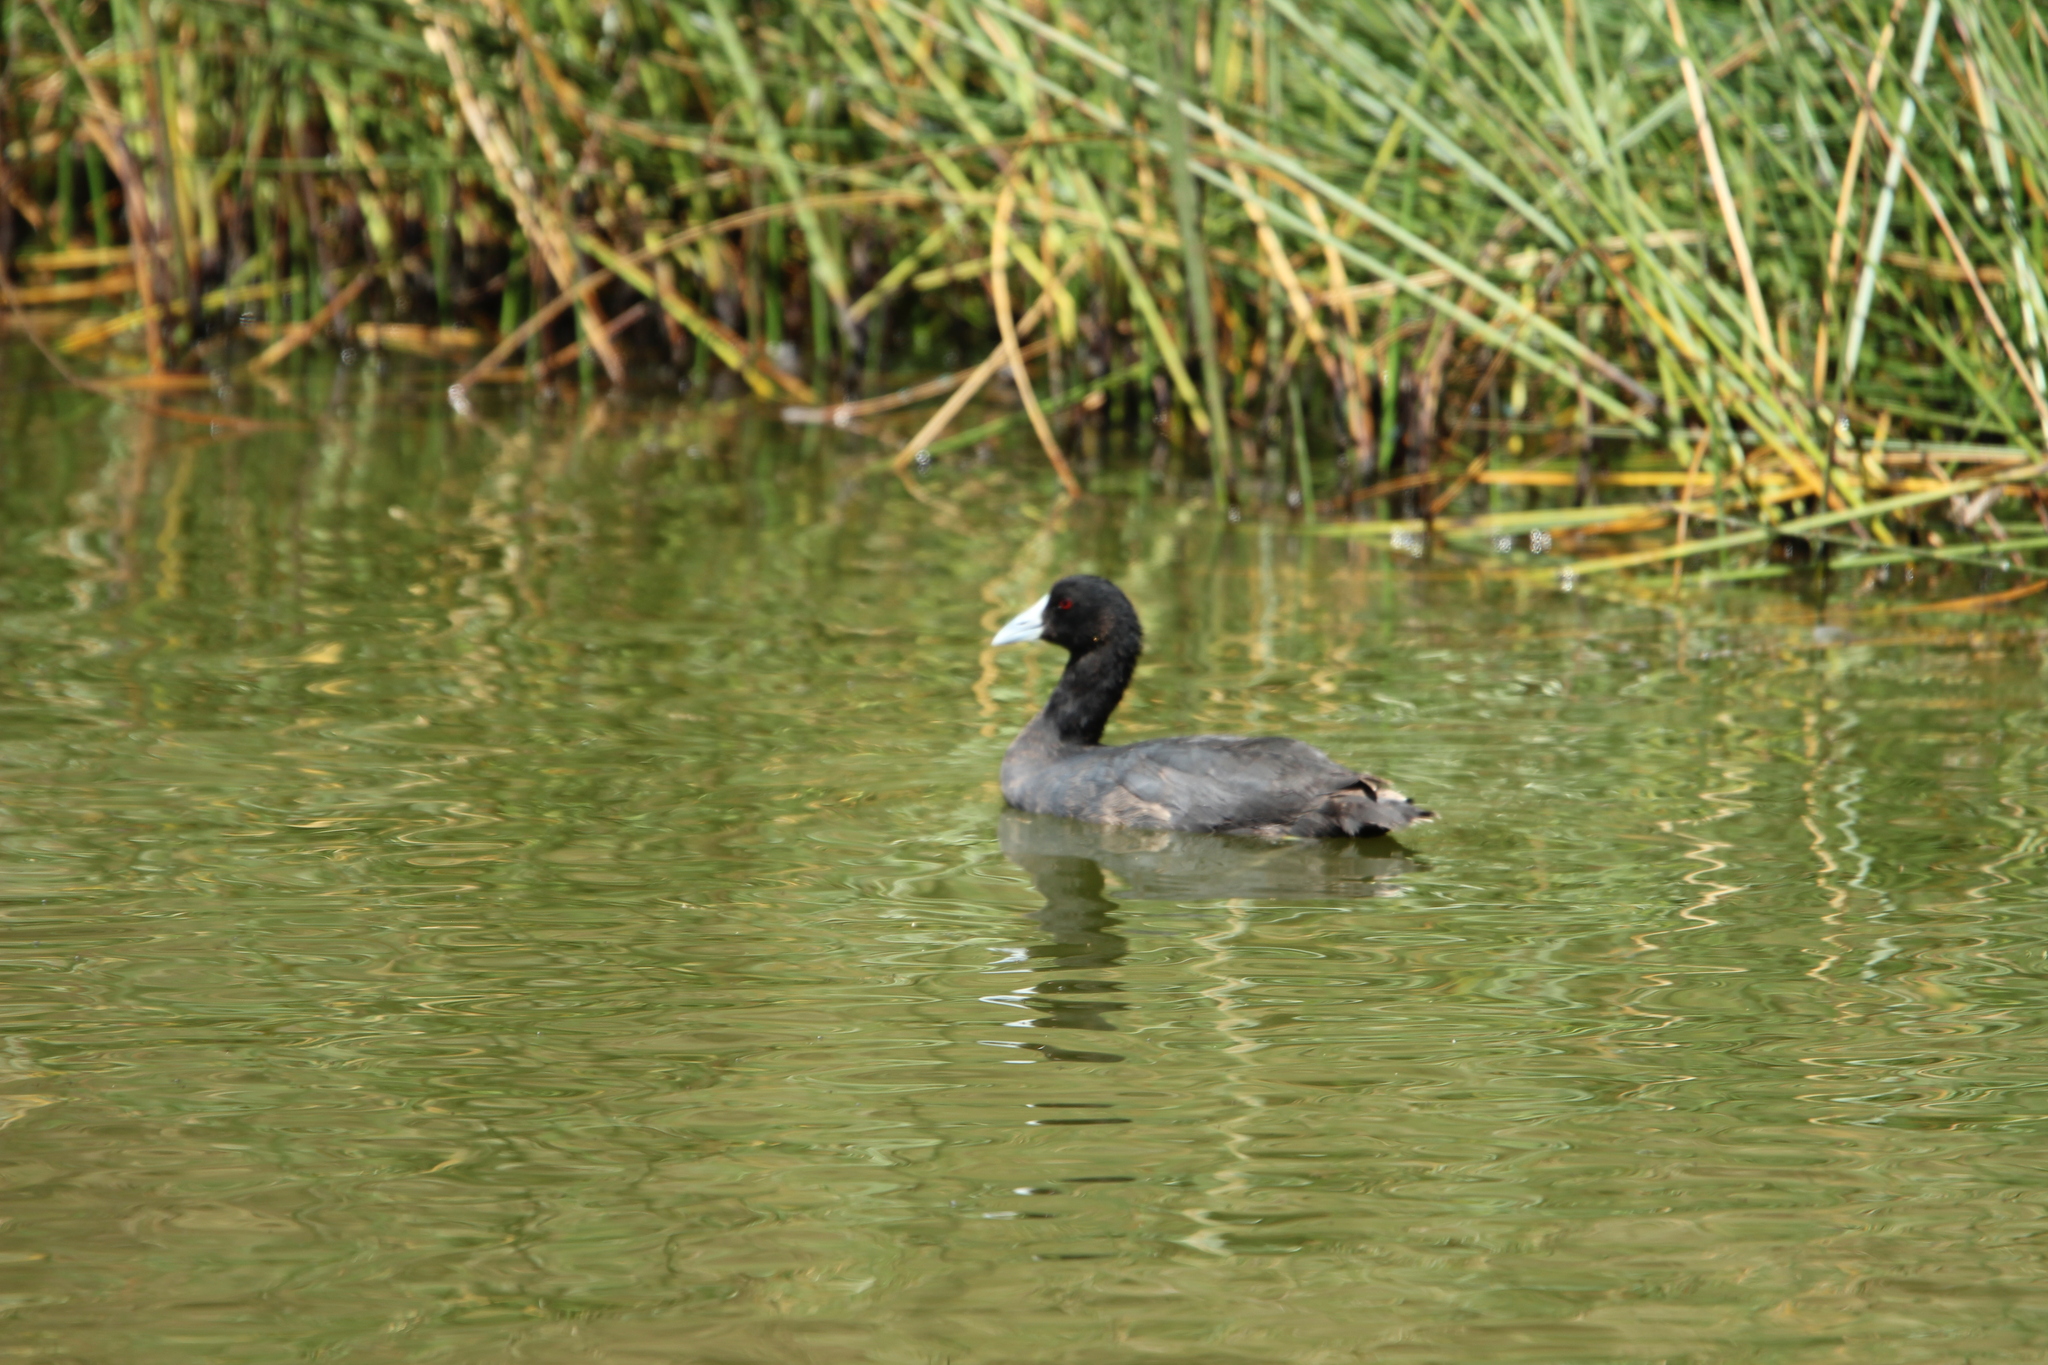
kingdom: Animalia
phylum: Chordata
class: Aves
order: Gruiformes
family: Rallidae
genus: Fulica
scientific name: Fulica cristata
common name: Red-knobbed coot
